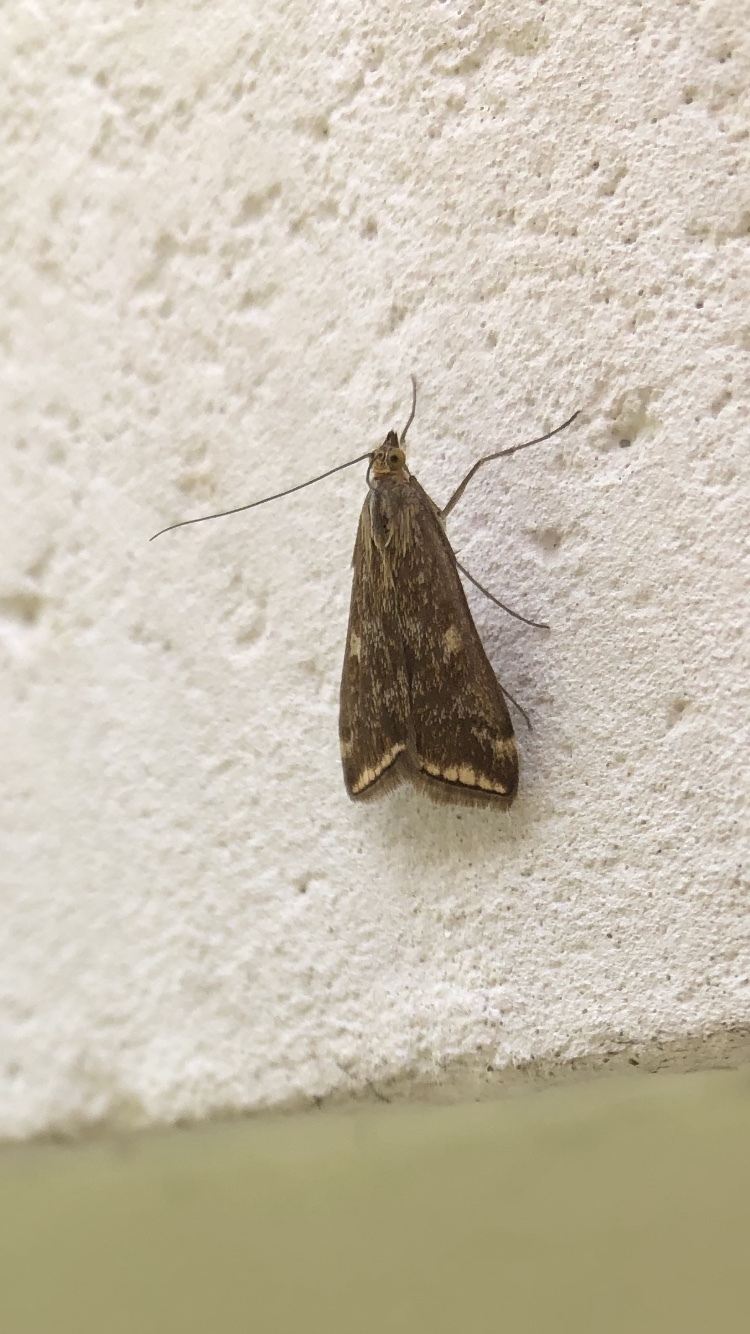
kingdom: Animalia
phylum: Arthropoda
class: Insecta
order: Lepidoptera
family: Crambidae
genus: Loxostege
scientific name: Loxostege sticticalis
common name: Crambid moth
